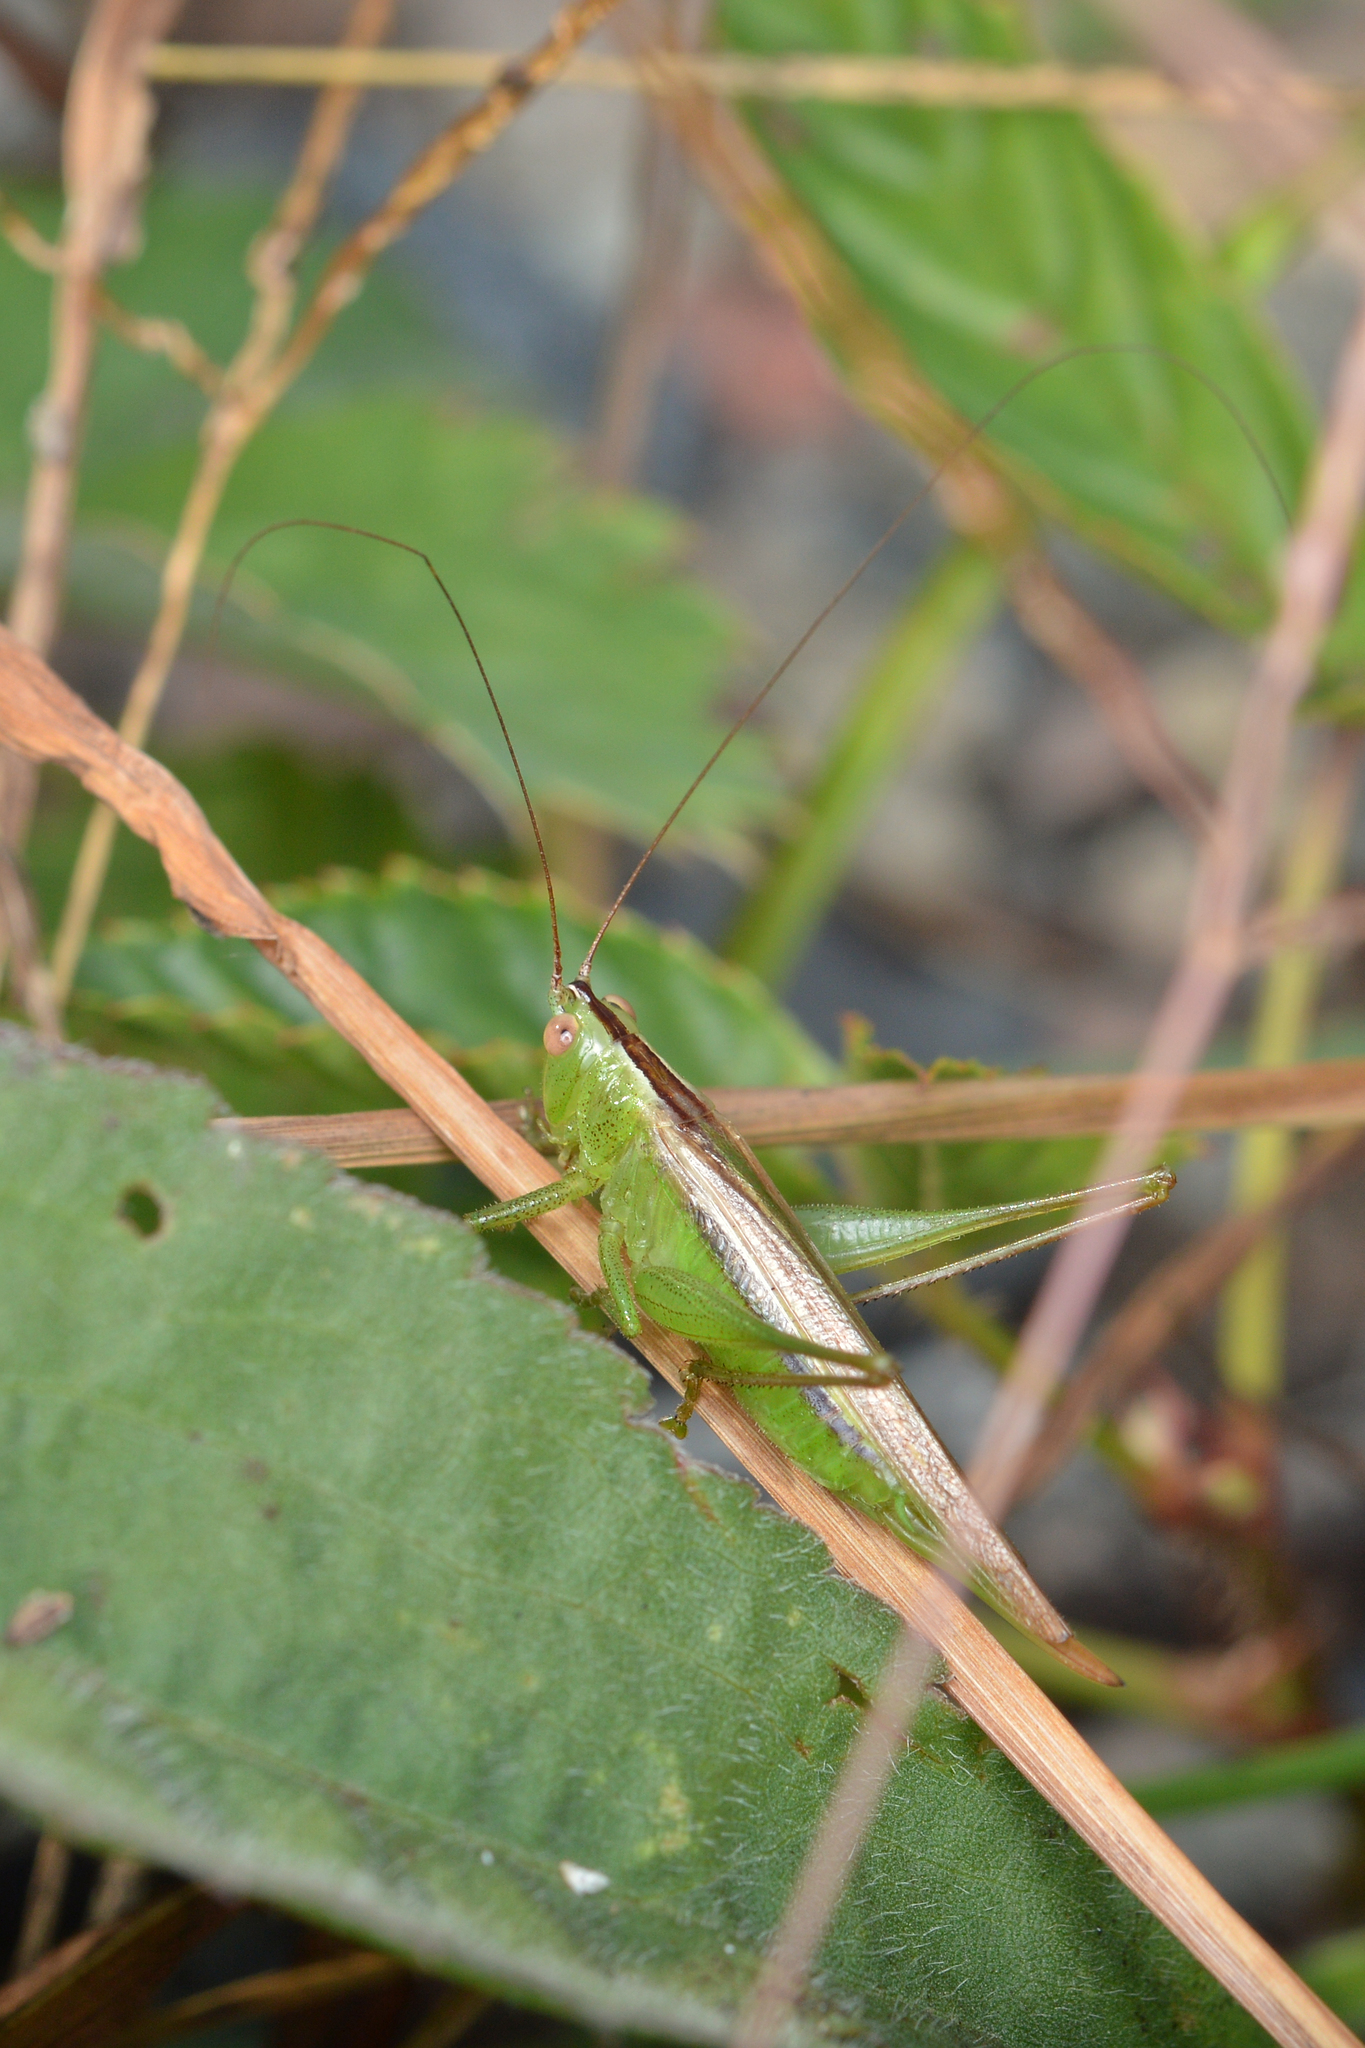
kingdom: Animalia
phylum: Arthropoda
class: Insecta
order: Orthoptera
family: Tettigoniidae
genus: Conocephalus
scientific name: Conocephalus fasciatus
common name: Slender meadow katydid
